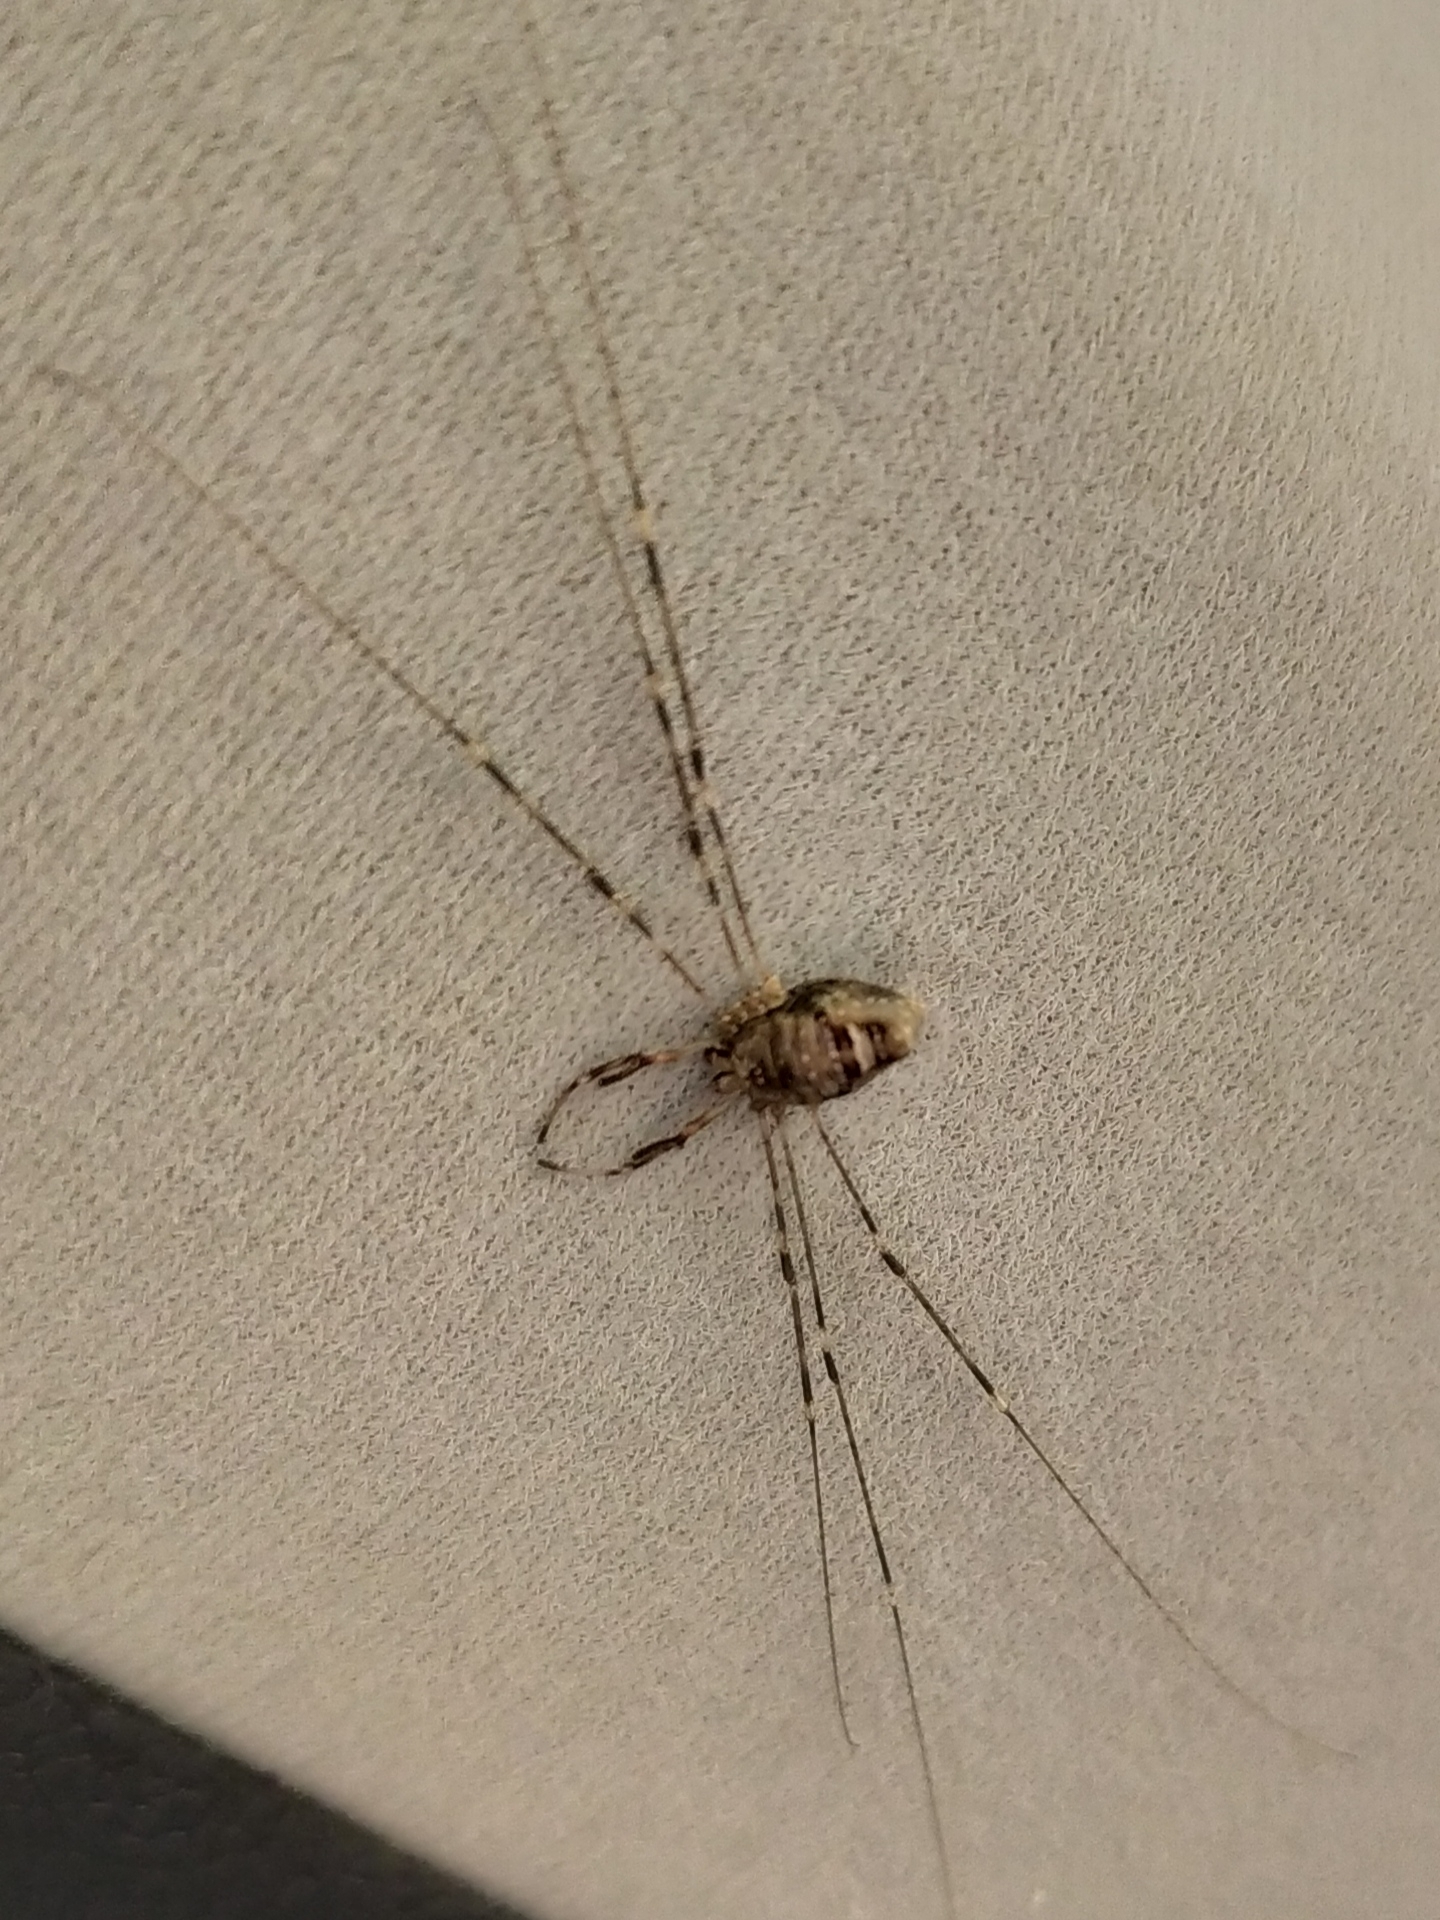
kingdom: Animalia
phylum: Arthropoda
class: Arachnida
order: Opiliones
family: Phalangiidae
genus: Dicranopalpus
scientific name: Dicranopalpus ramosus
